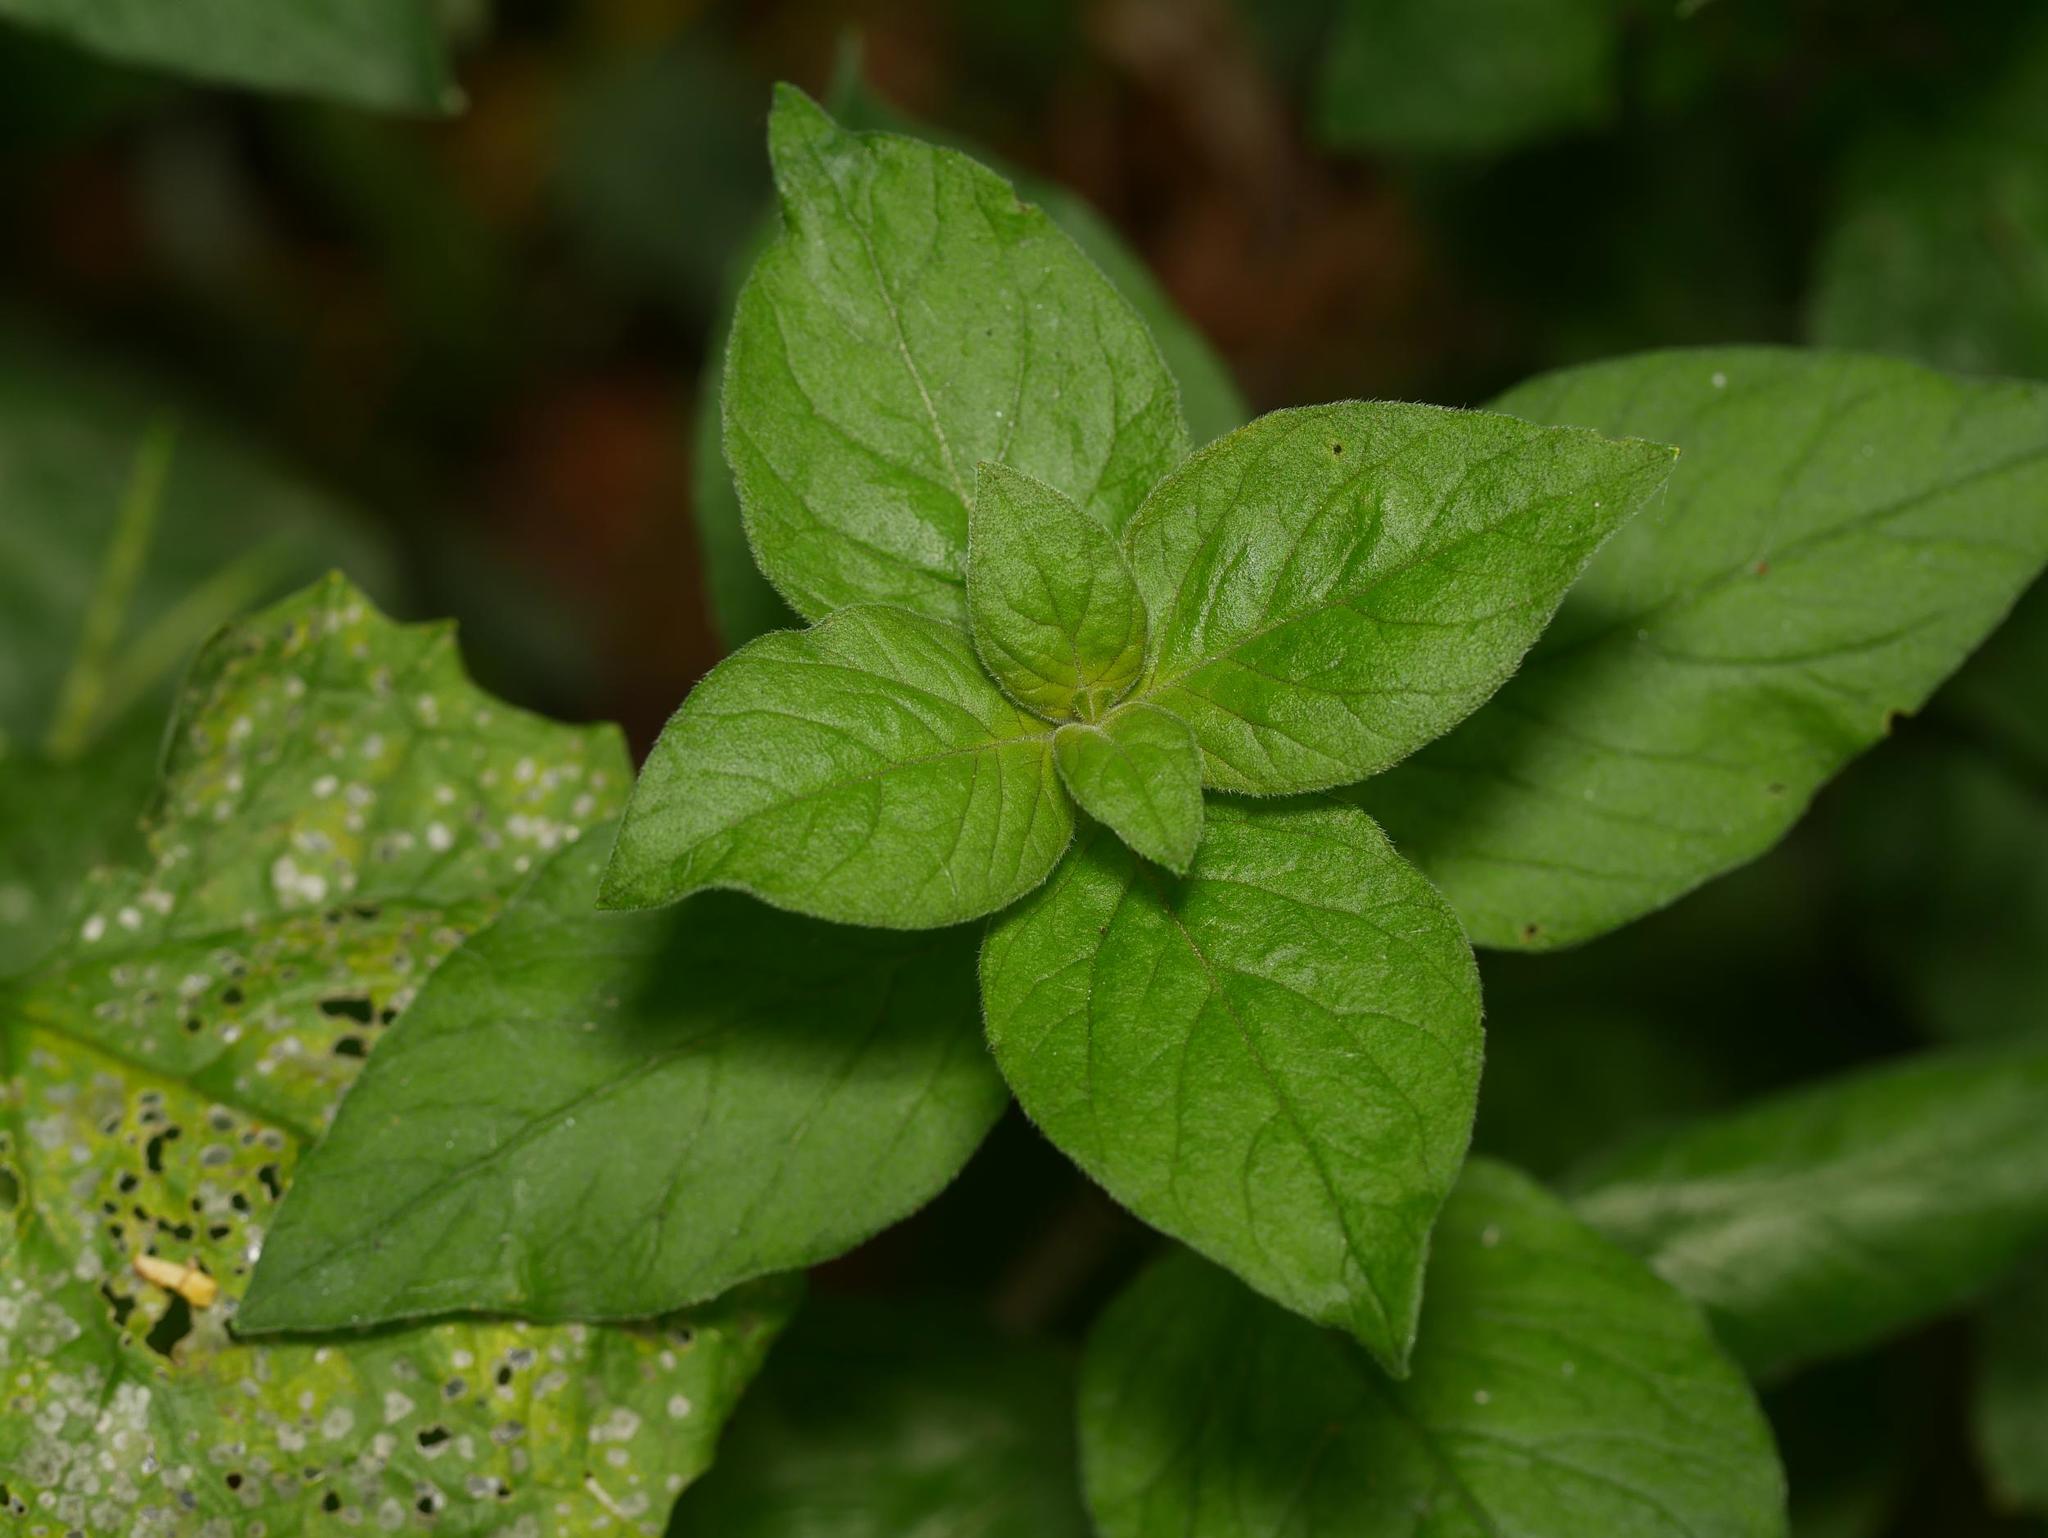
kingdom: Plantae
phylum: Tracheophyta
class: Magnoliopsida
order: Ericales
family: Primulaceae
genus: Lysimachia
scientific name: Lysimachia punctata
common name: Dotted loosestrife
